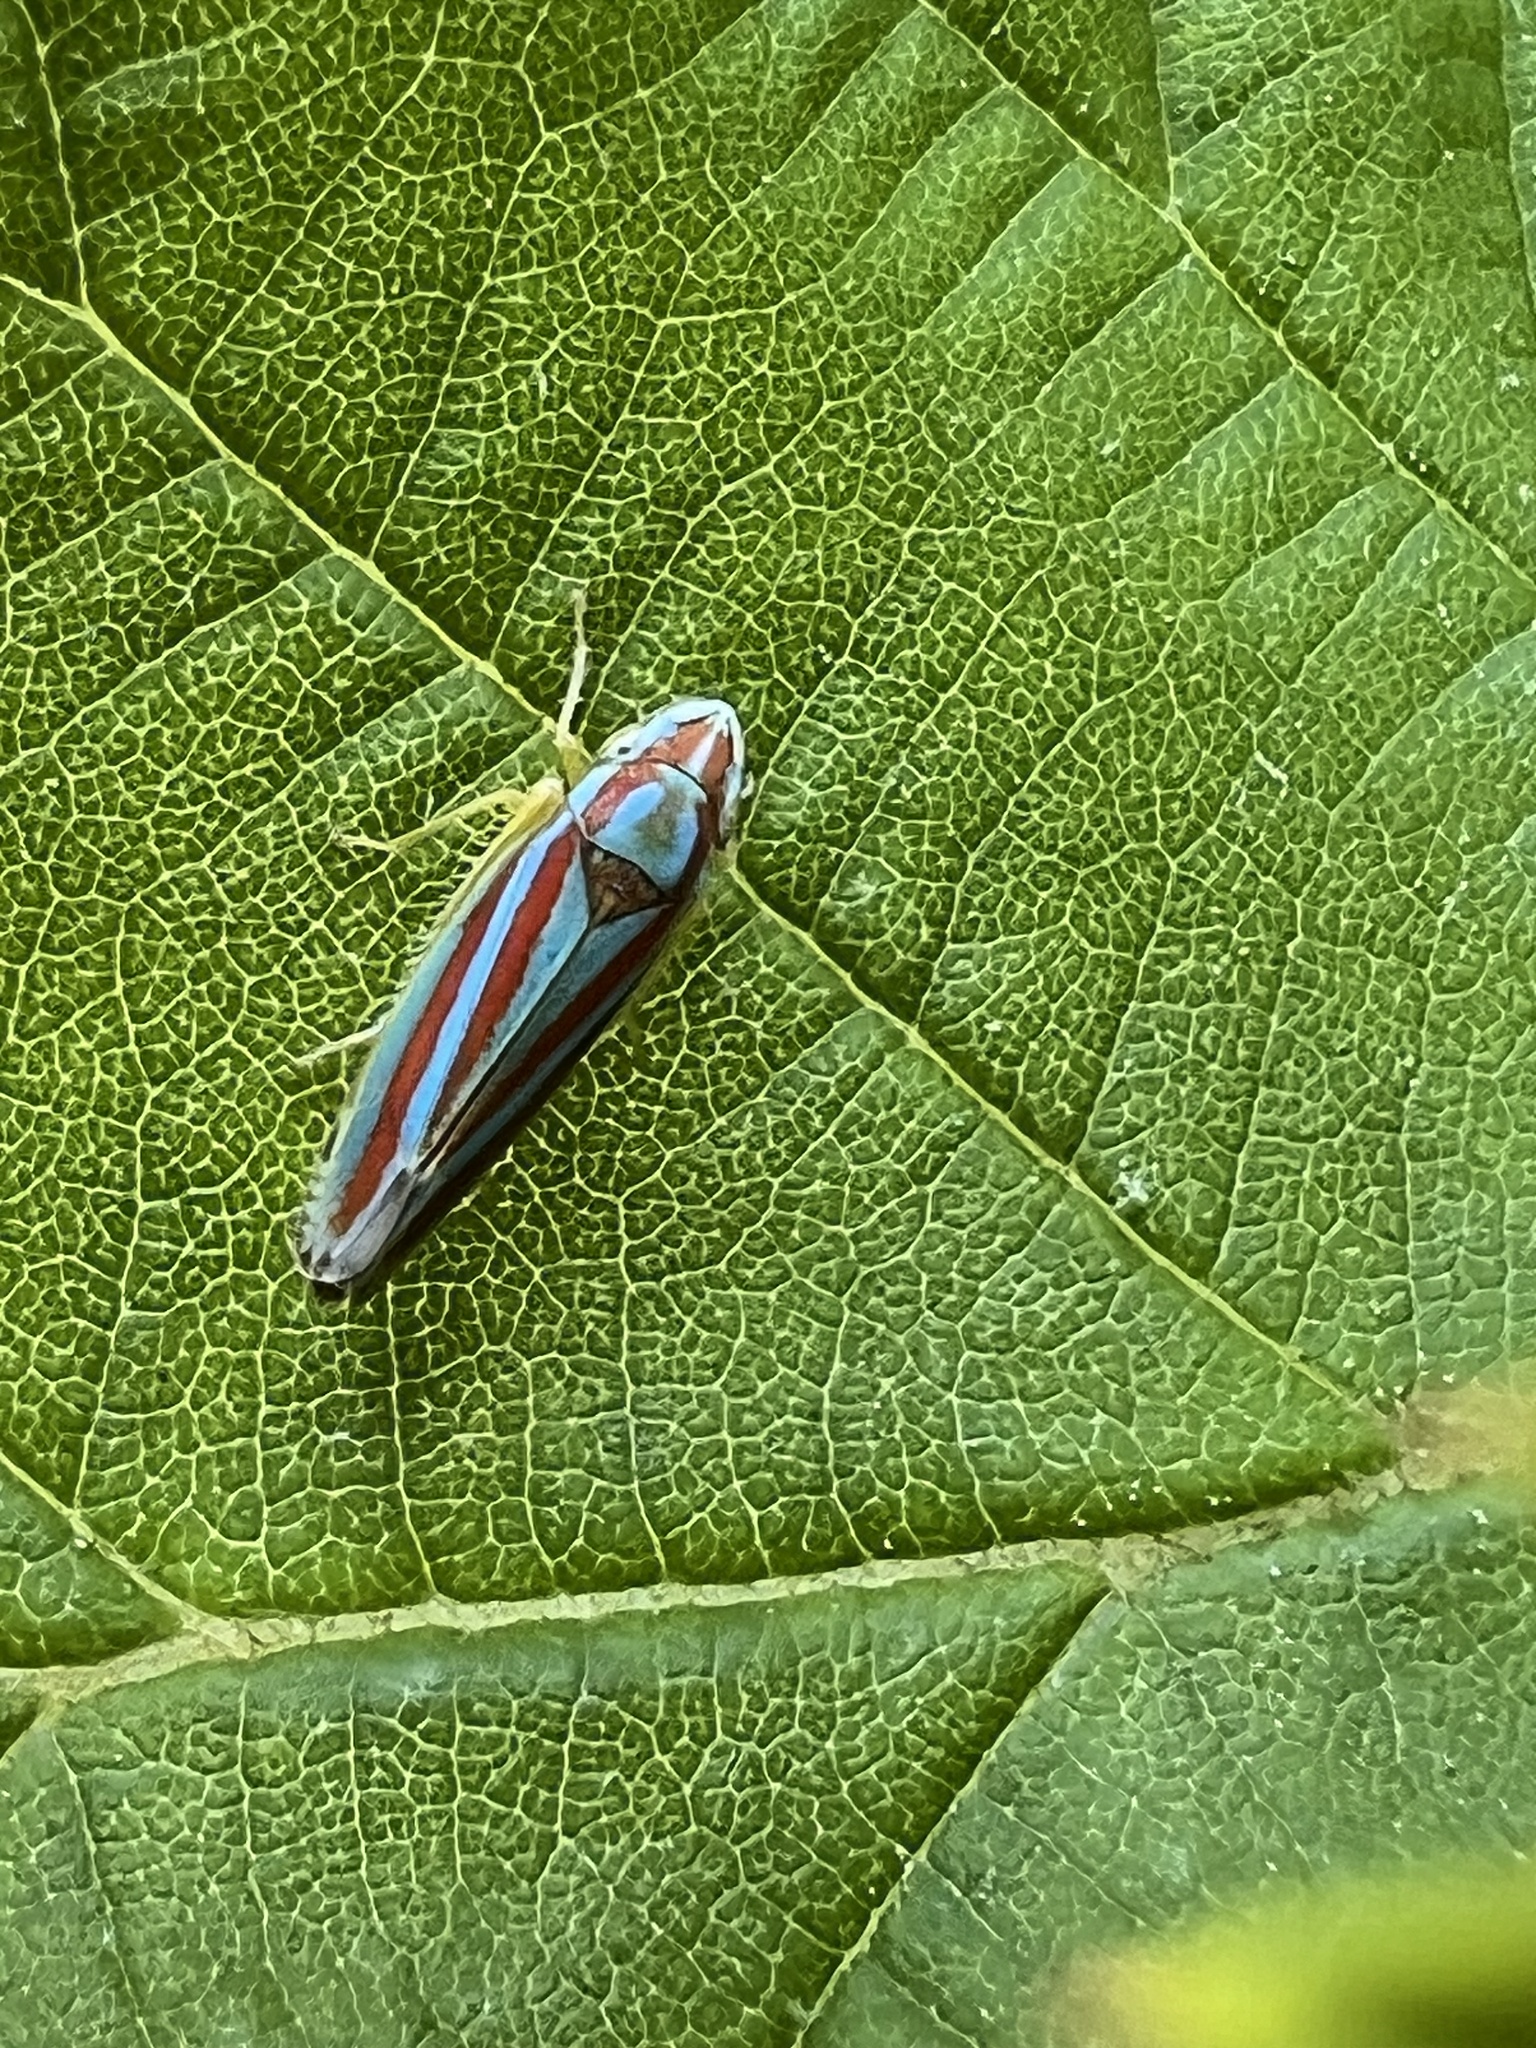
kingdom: Animalia
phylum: Arthropoda
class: Insecta
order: Hemiptera
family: Cicadellidae
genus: Graphocephala
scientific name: Graphocephala versuta
